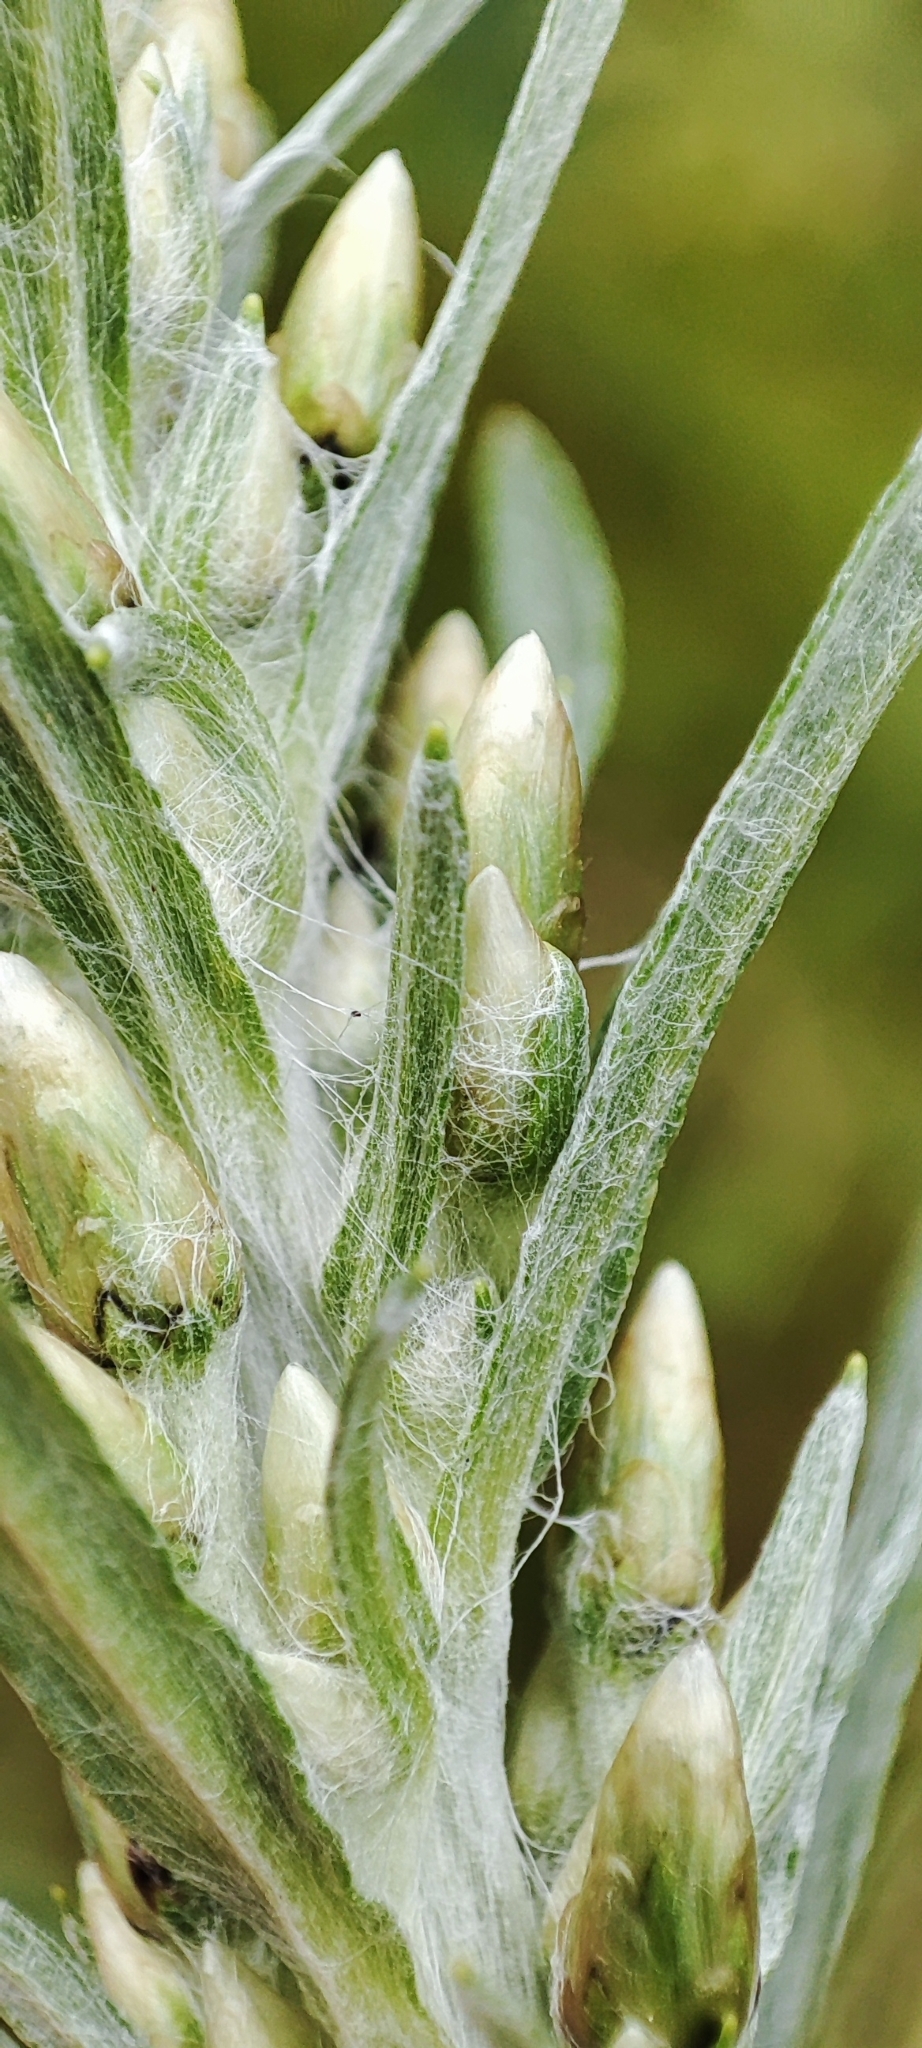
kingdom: Plantae
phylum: Tracheophyta
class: Magnoliopsida
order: Asterales
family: Asteraceae
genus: Omalotheca
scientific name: Omalotheca sylvatica
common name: Heath cudweed
